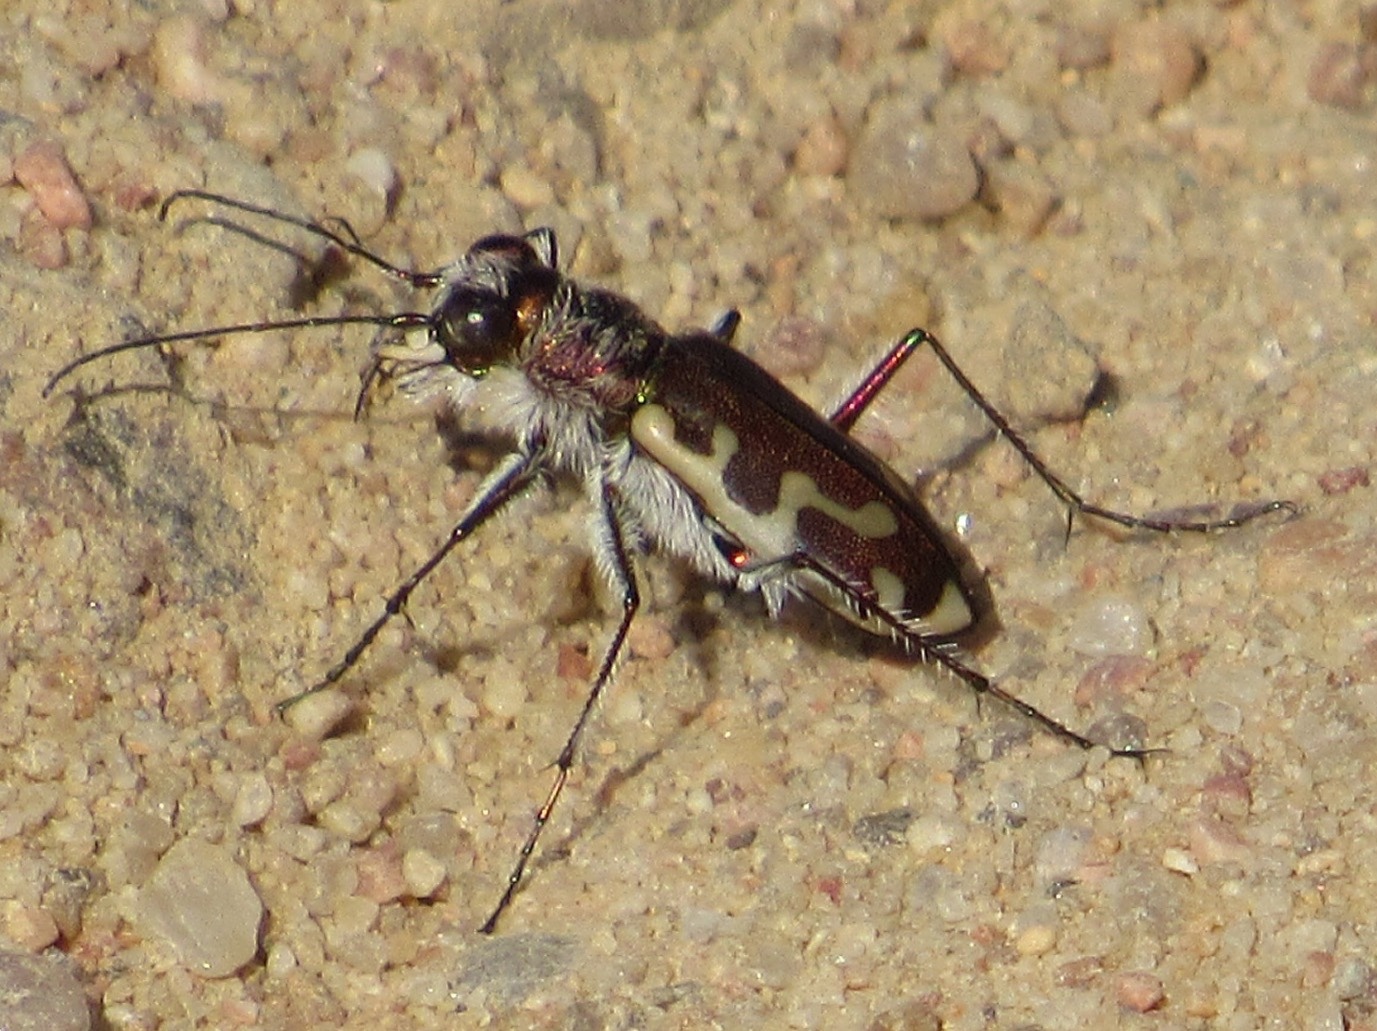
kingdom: Animalia
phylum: Arthropoda
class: Insecta
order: Coleoptera
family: Carabidae
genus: Cicindela
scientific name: Cicindela hirticollis
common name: Hairy-necked tiger beetle
